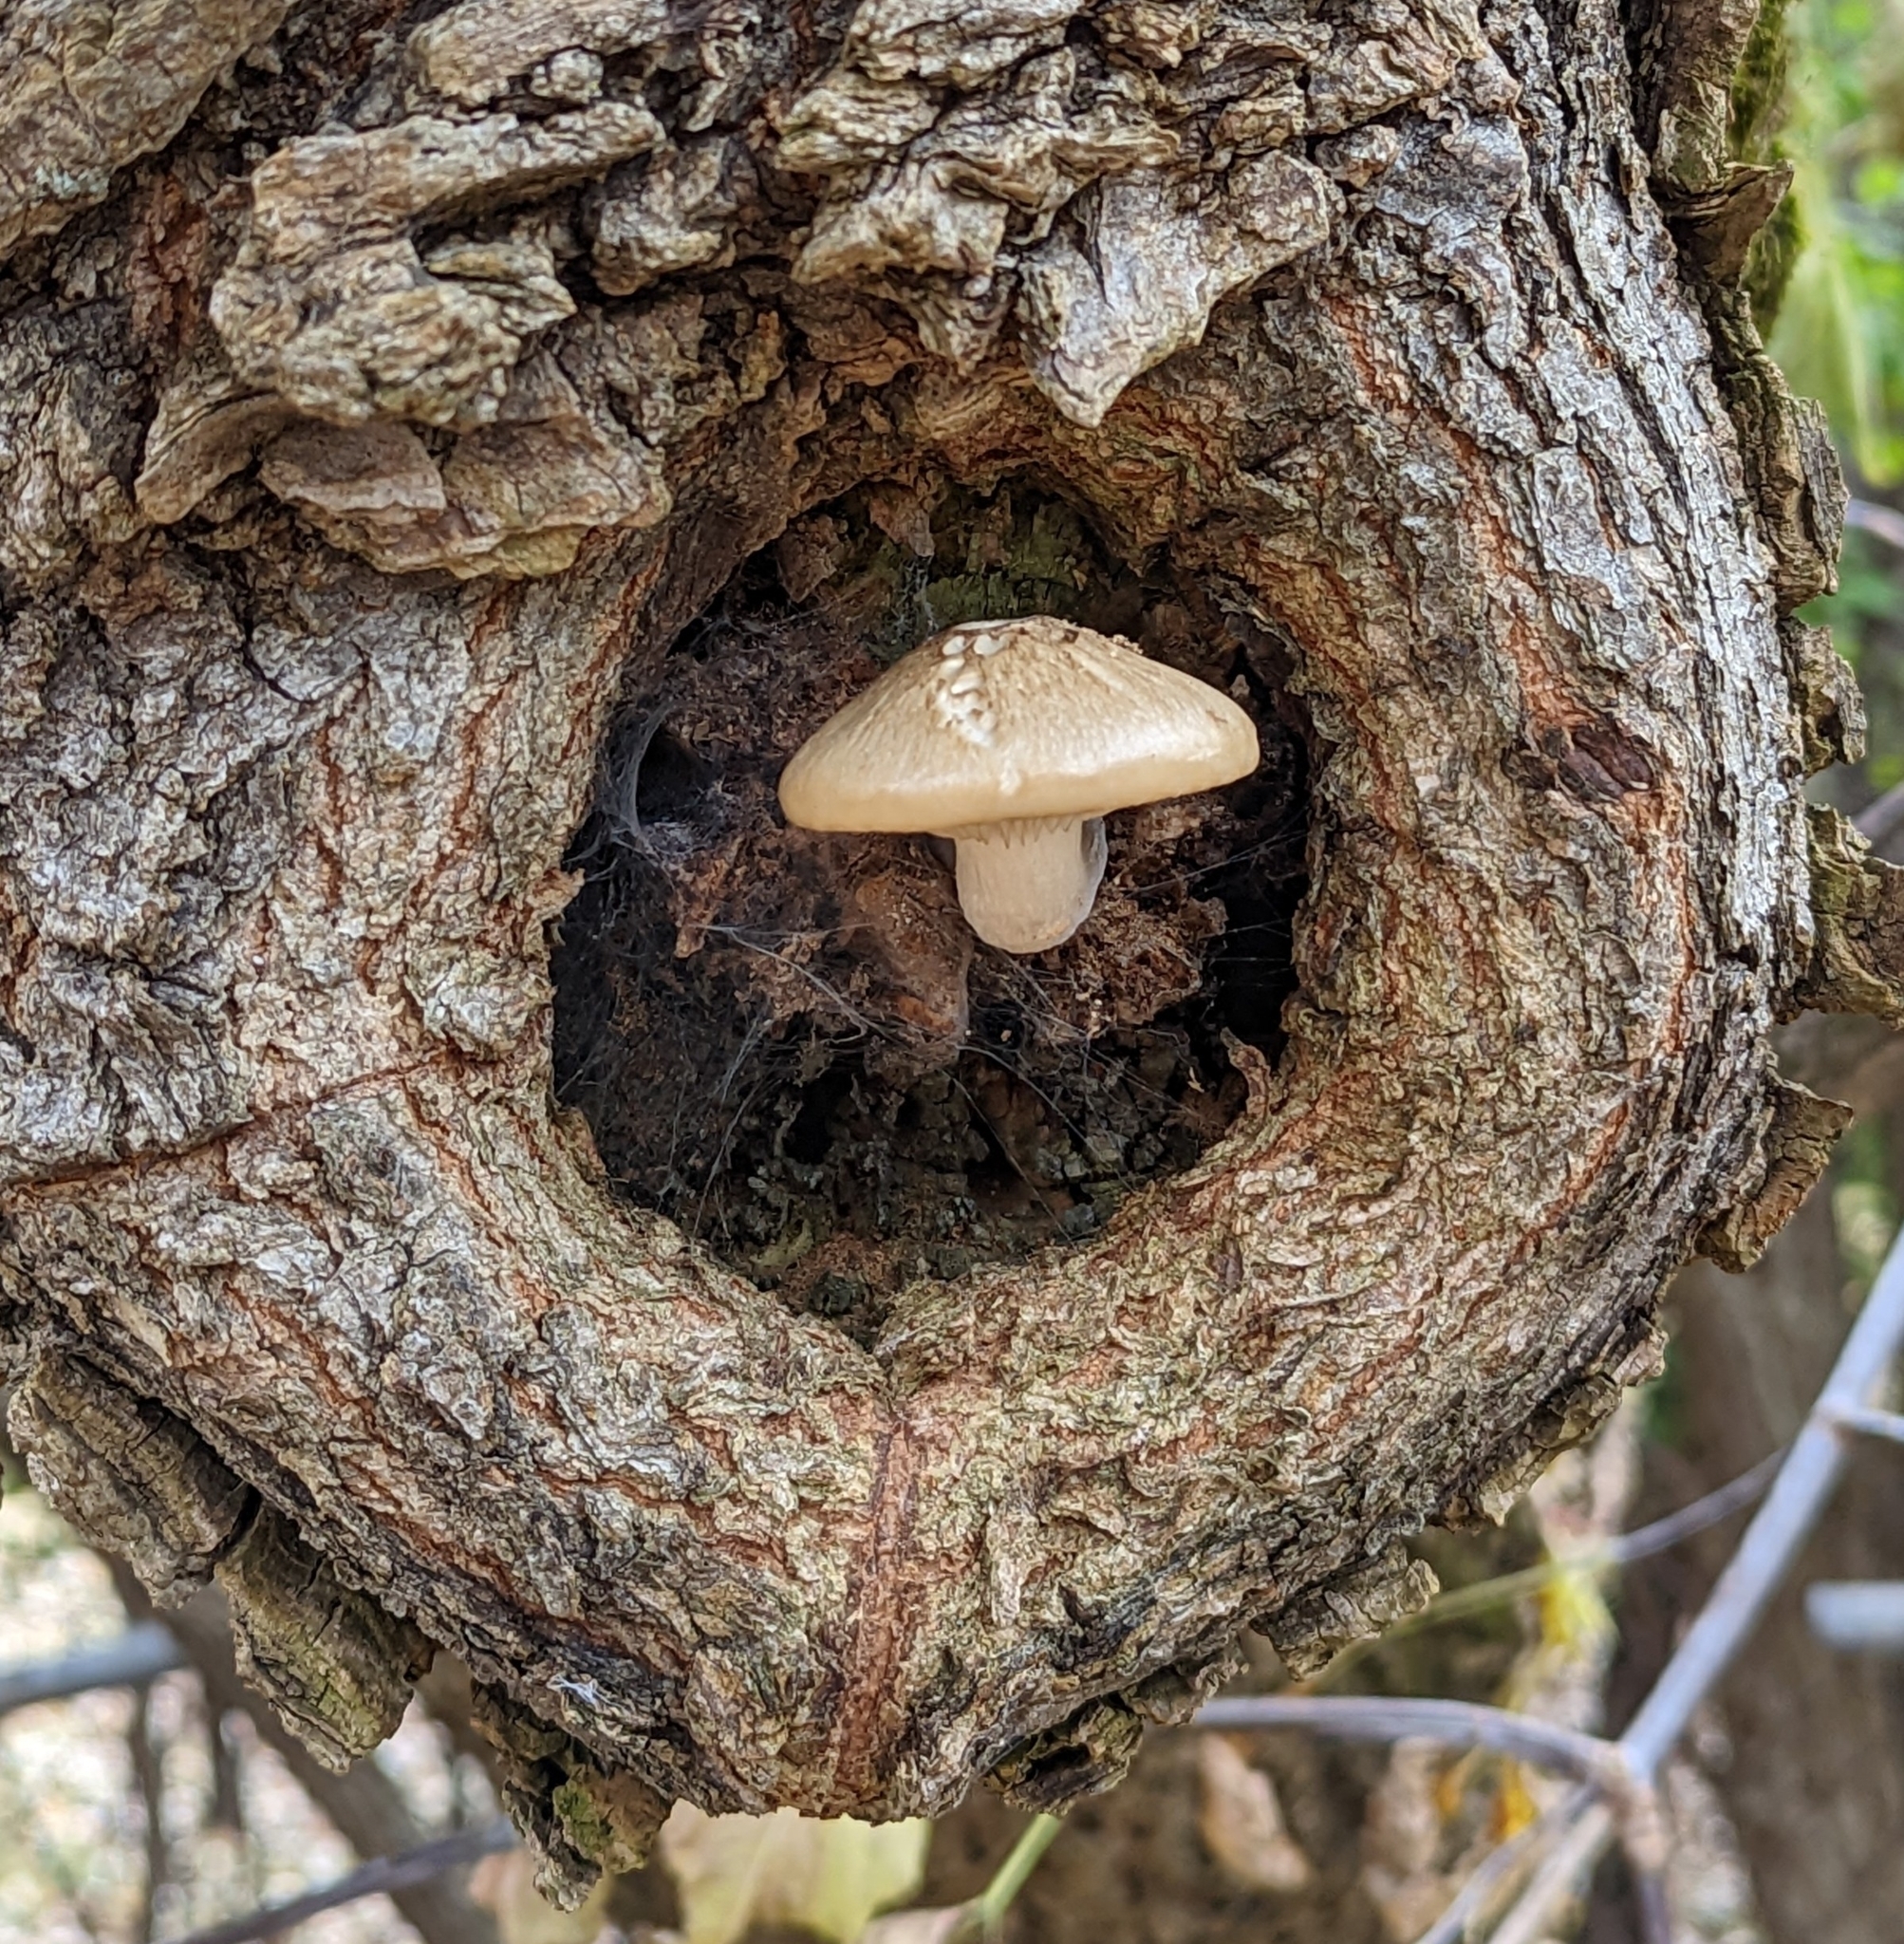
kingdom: Fungi
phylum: Basidiomycota
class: Agaricomycetes
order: Agaricales
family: Lyophyllaceae
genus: Hypsizygus
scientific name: Hypsizygus ulmarius
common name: Elm leech
